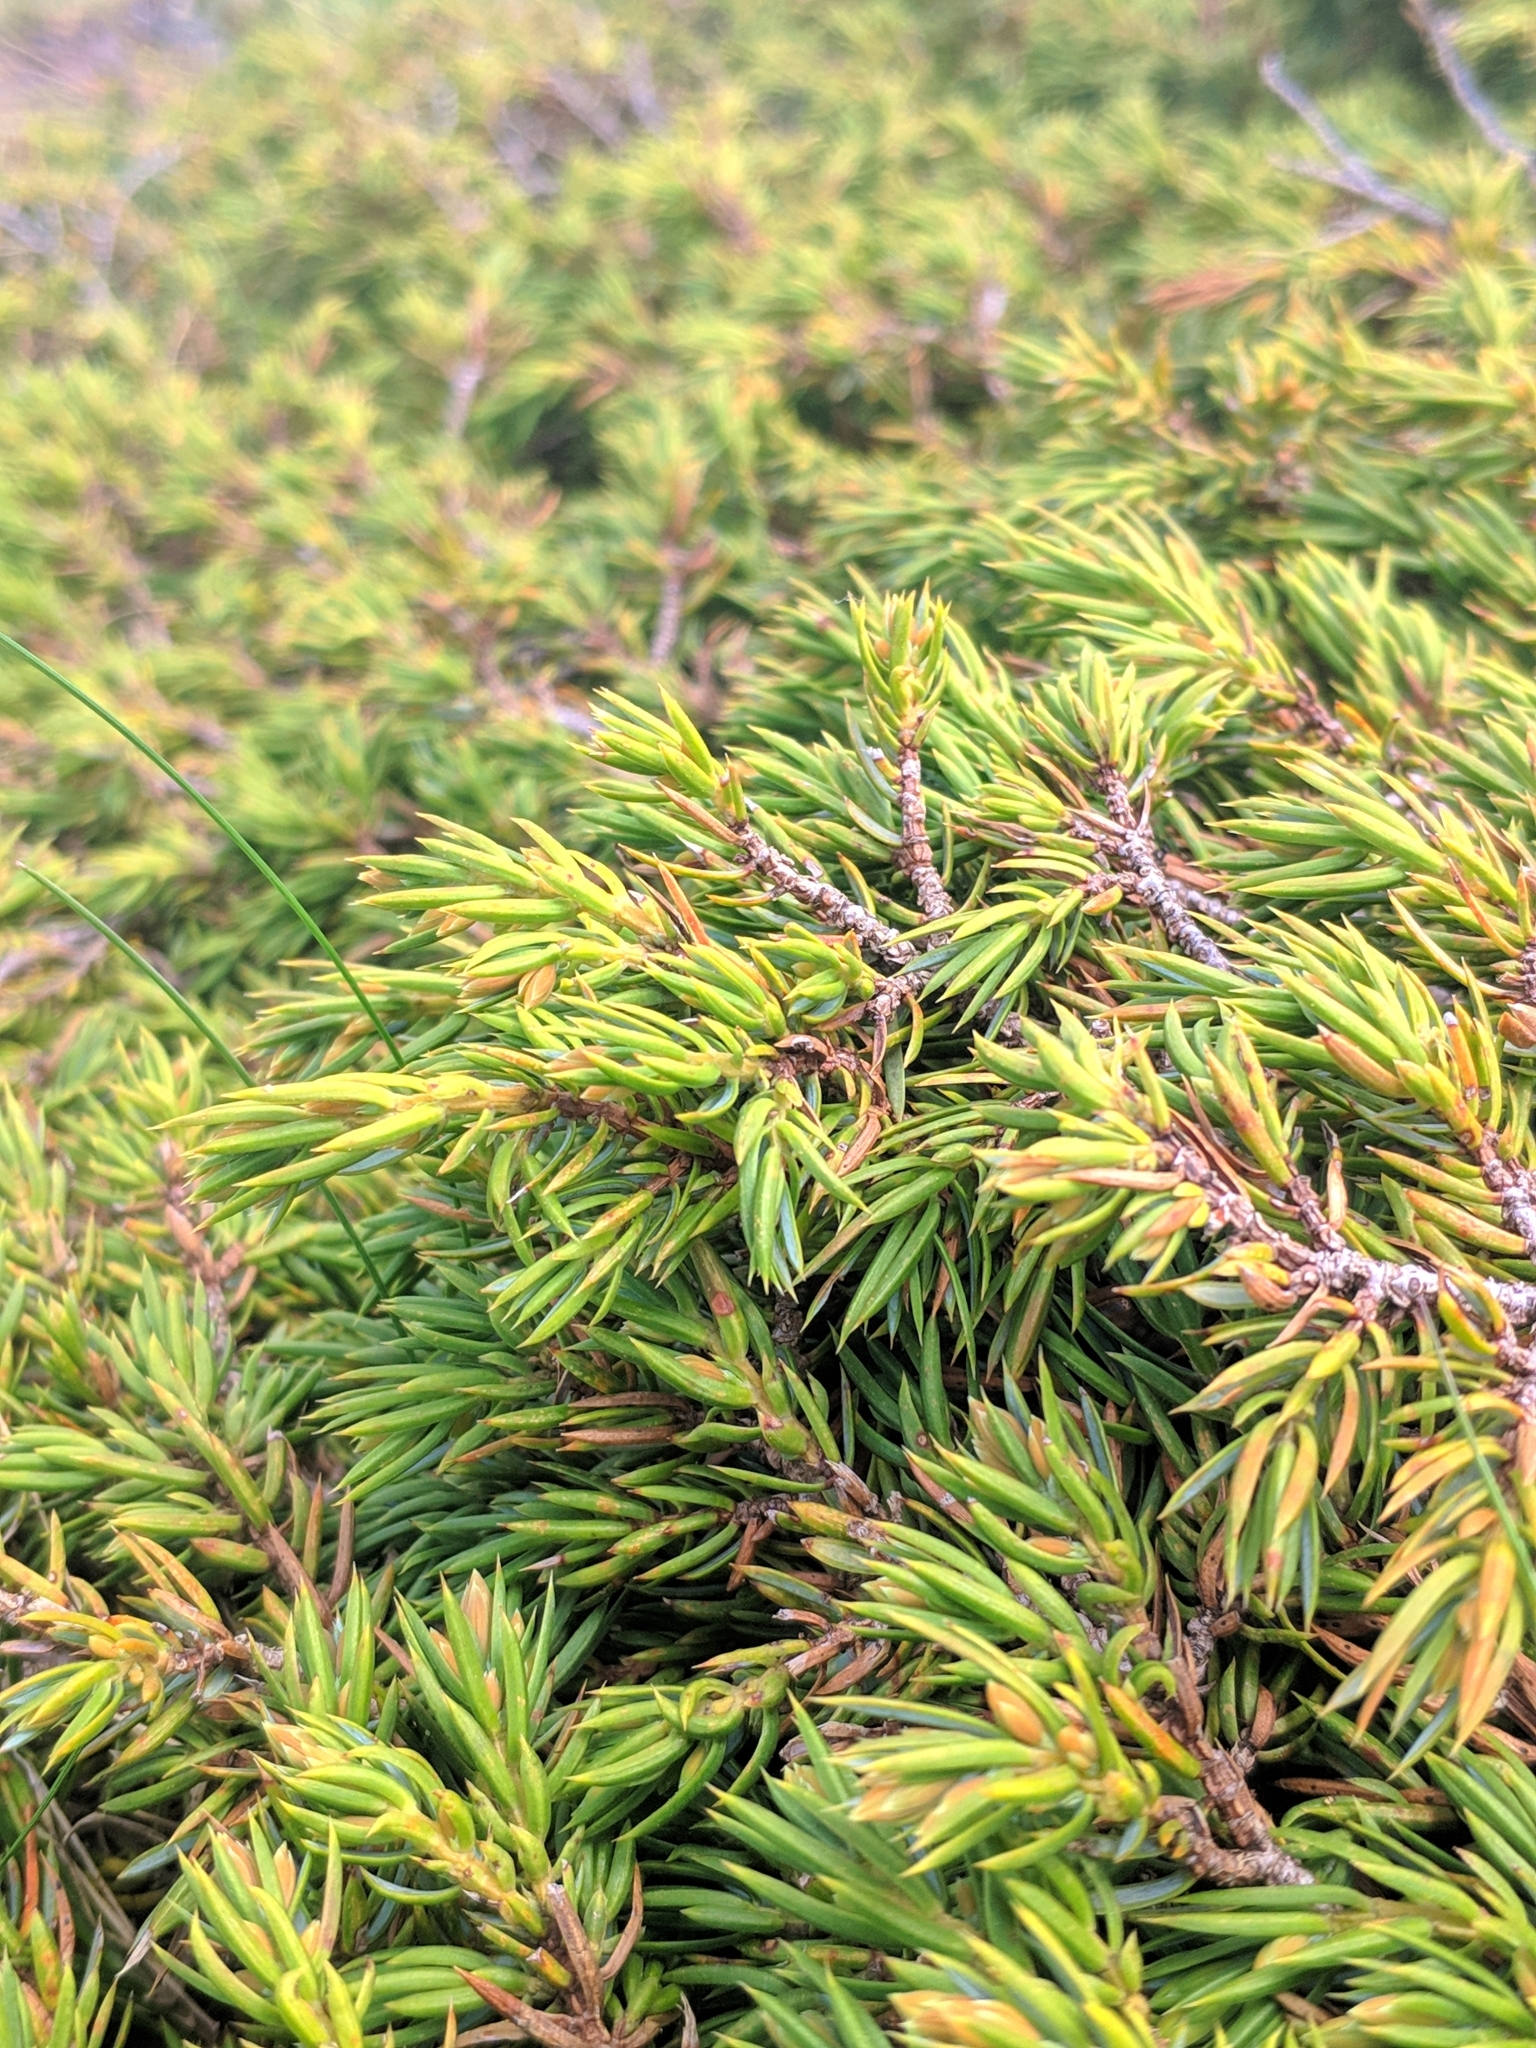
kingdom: Plantae
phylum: Tracheophyta
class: Pinopsida
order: Pinales
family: Cupressaceae
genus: Juniperus
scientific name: Juniperus communis
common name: Common juniper
